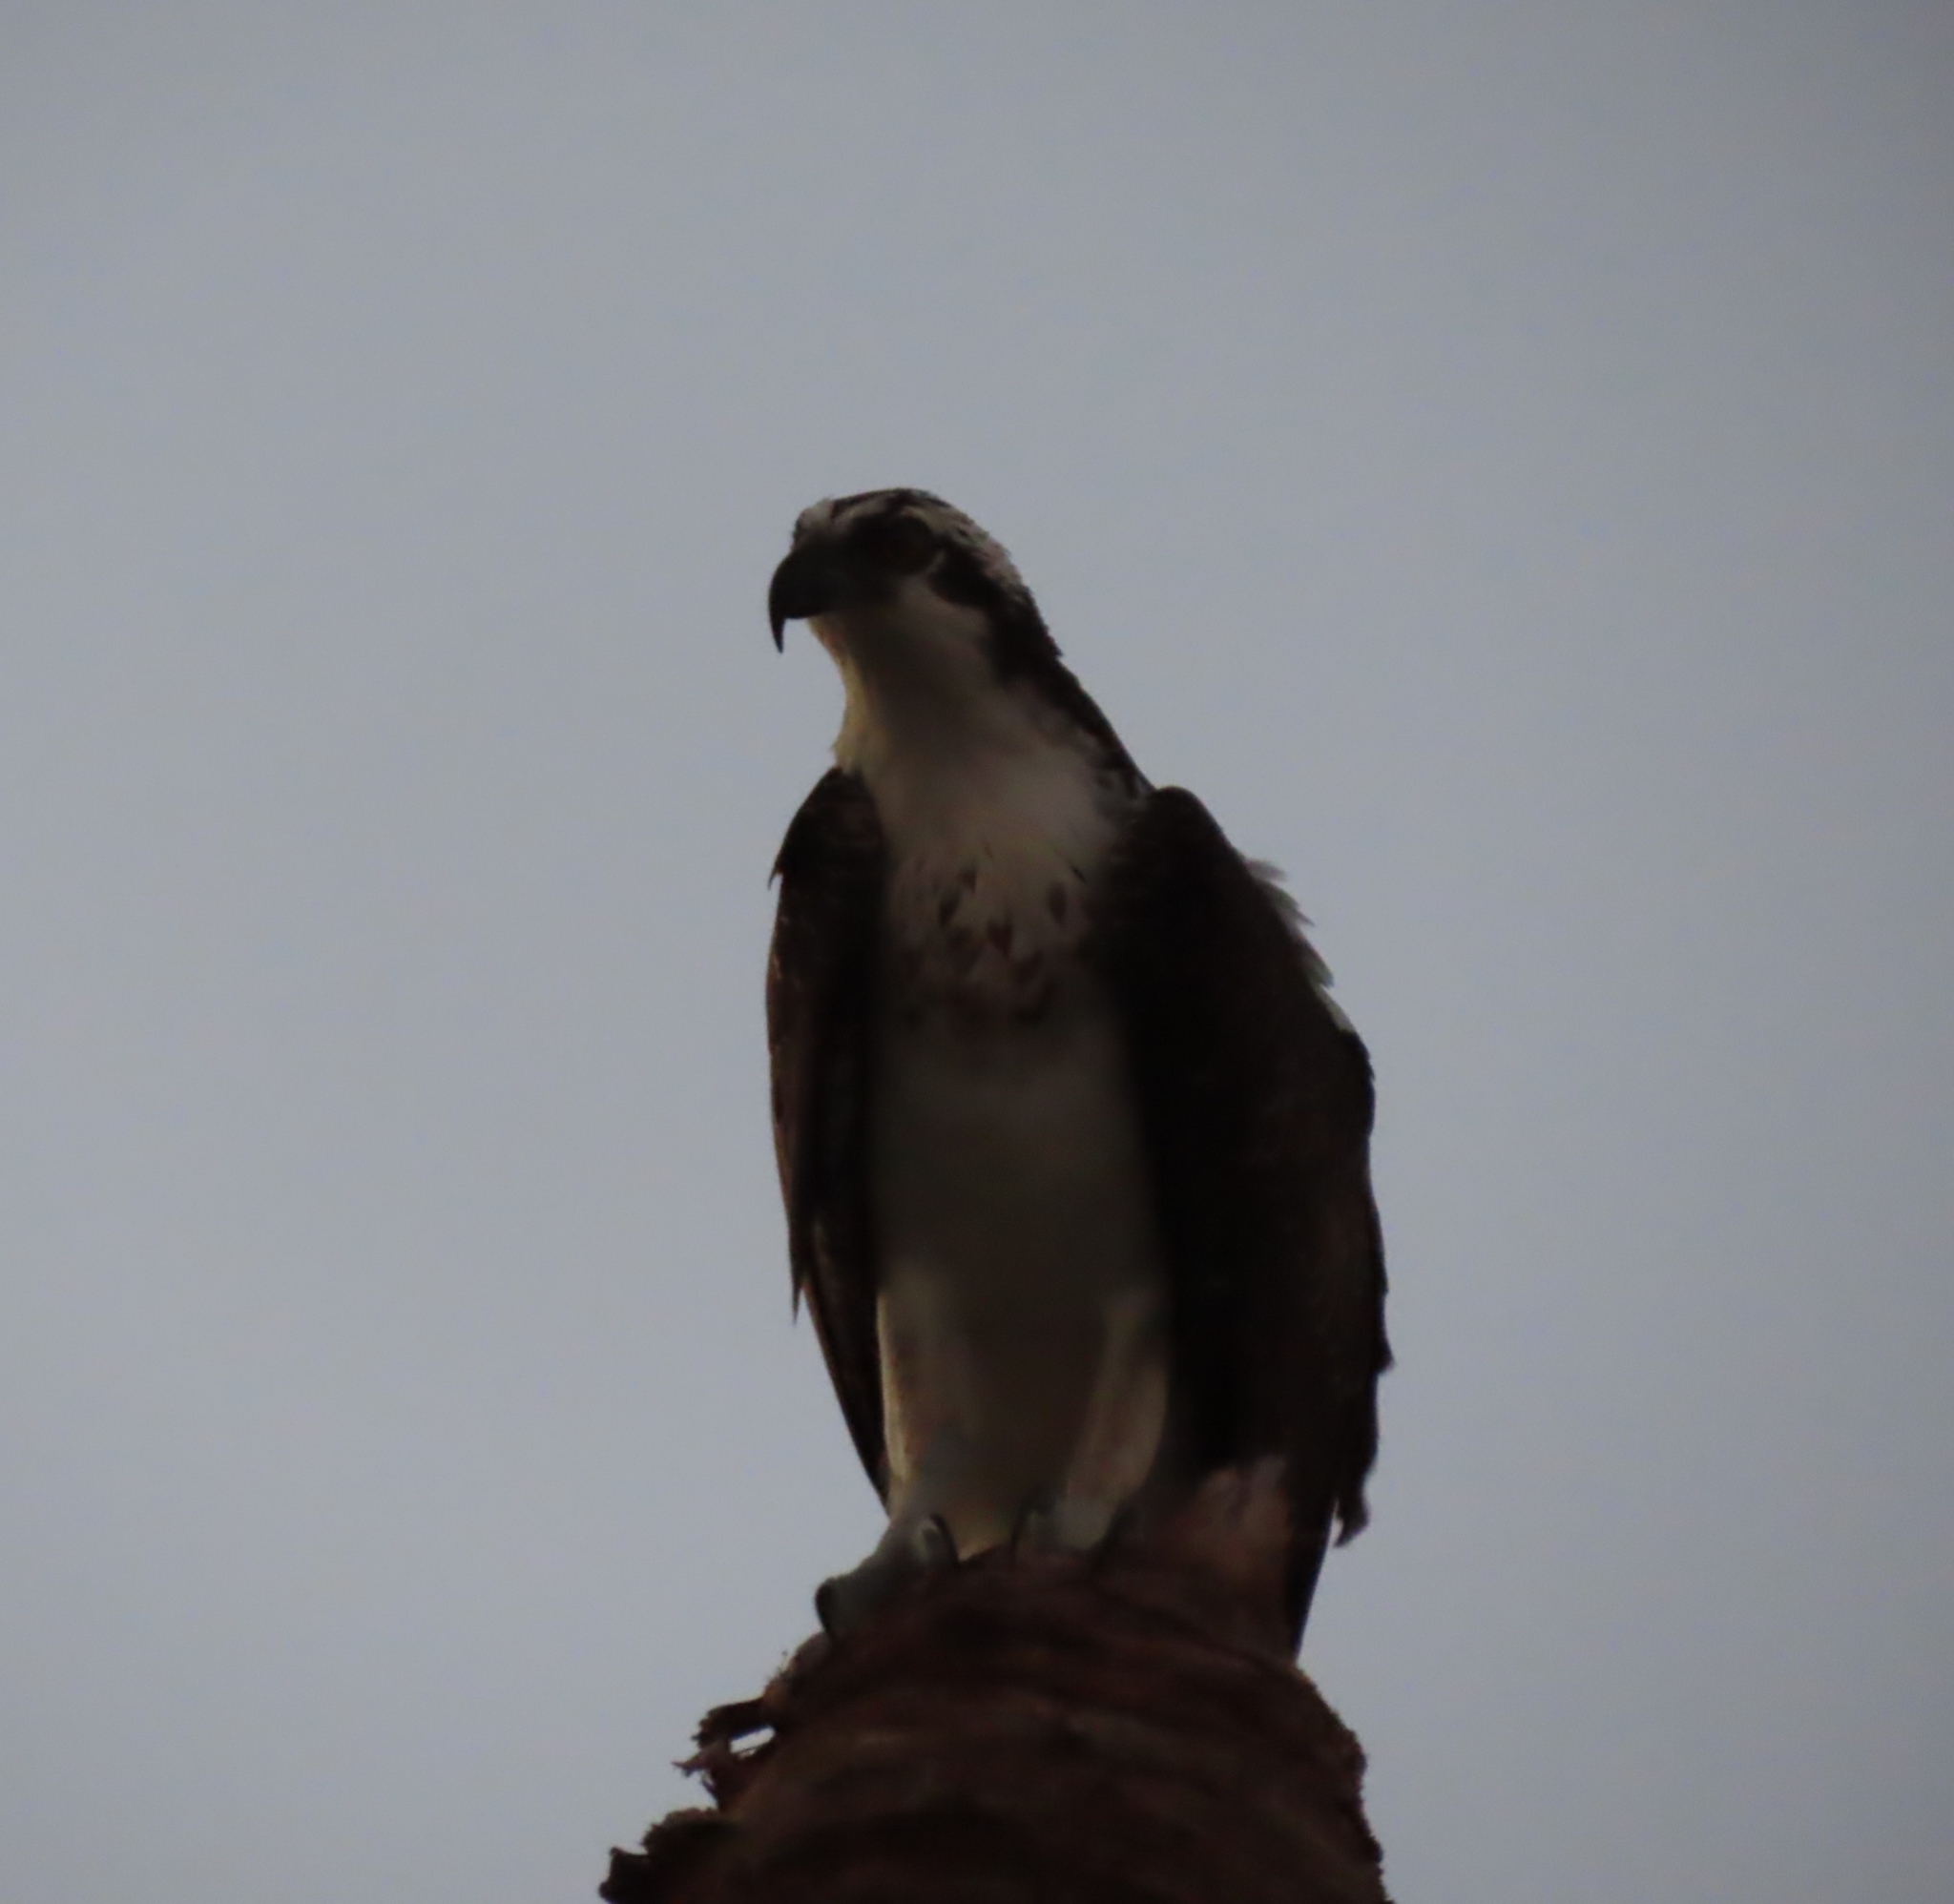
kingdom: Animalia
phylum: Chordata
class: Aves
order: Accipitriformes
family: Pandionidae
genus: Pandion
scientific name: Pandion haliaetus
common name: Osprey
